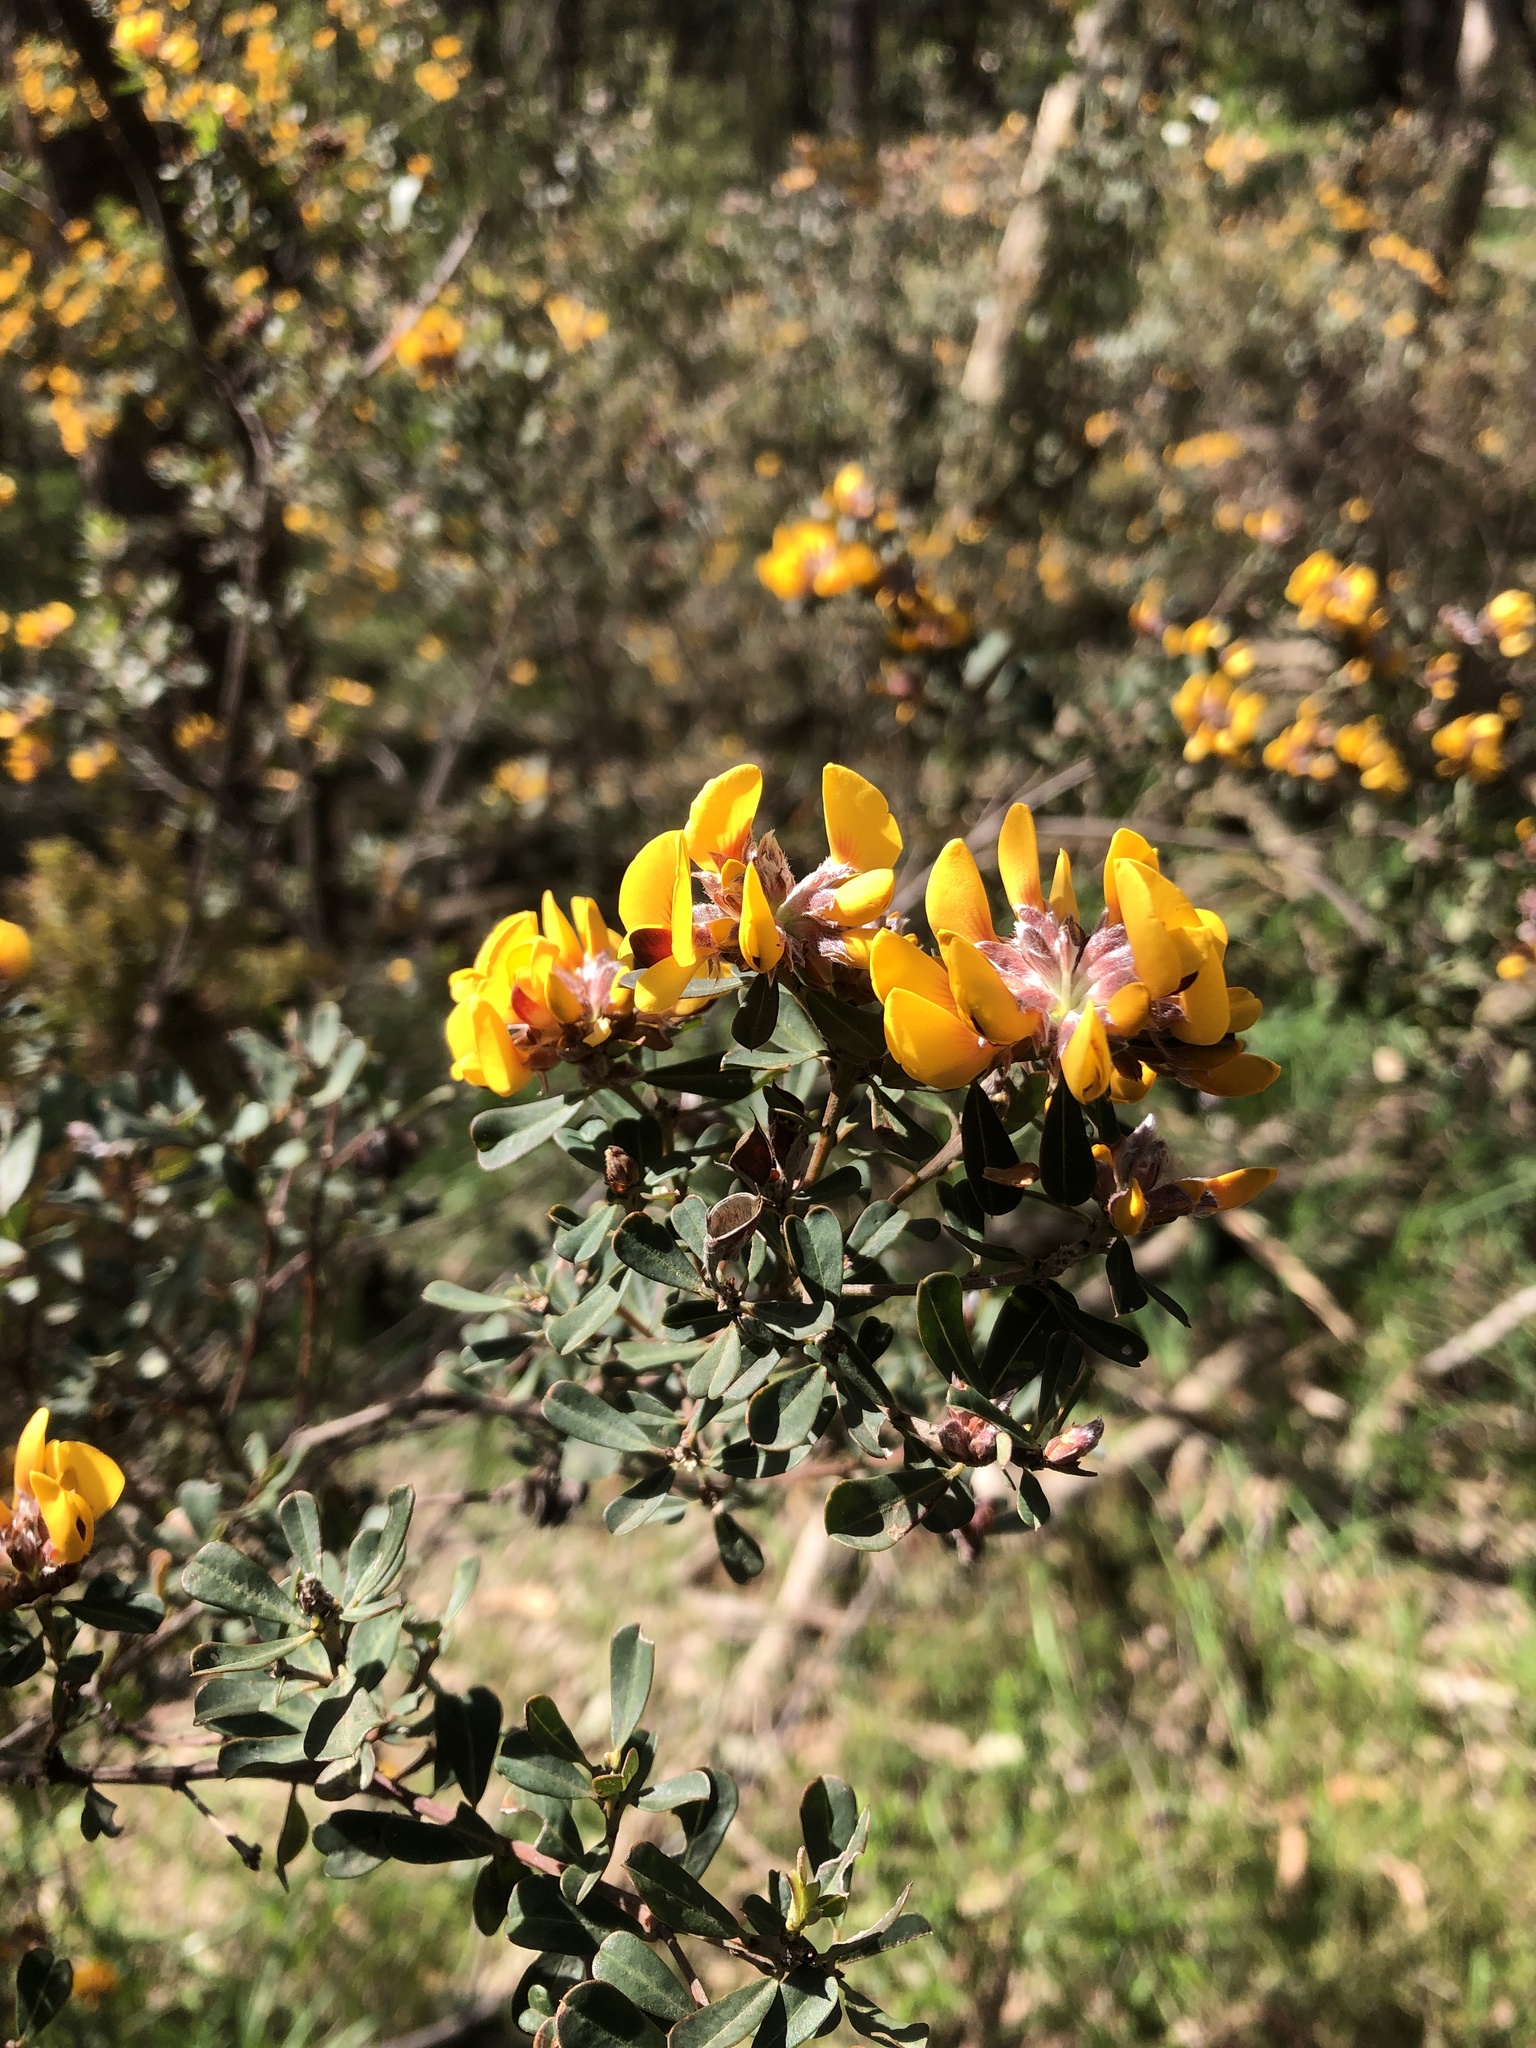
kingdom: Plantae
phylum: Tracheophyta
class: Magnoliopsida
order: Fabales
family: Fabaceae
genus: Pultenaea
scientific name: Pultenaea daphnoides
